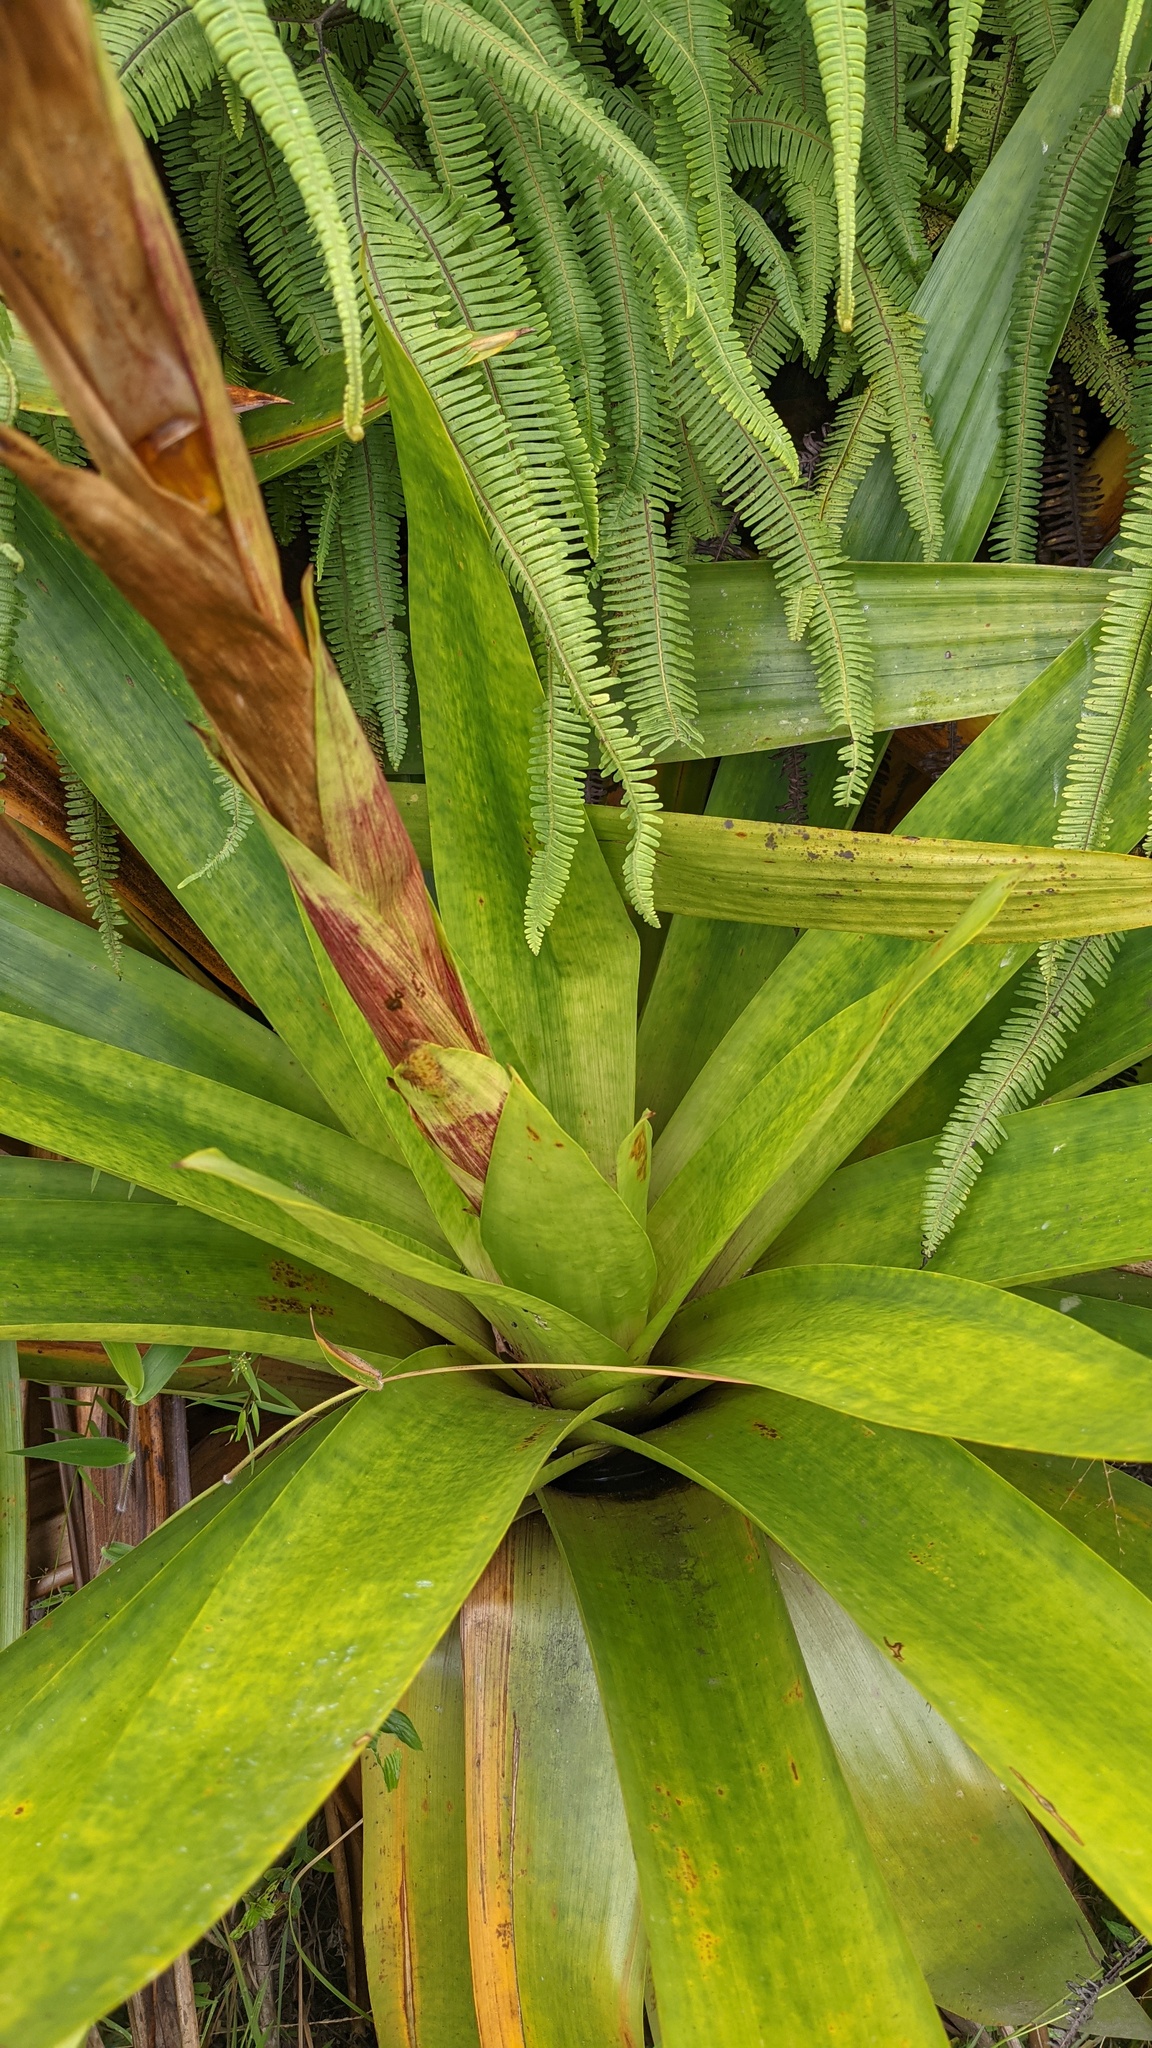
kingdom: Plantae
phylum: Tracheophyta
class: Liliopsida
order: Poales
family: Bromeliaceae
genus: Cipuropsis
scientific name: Cipuropsis hospitalis
